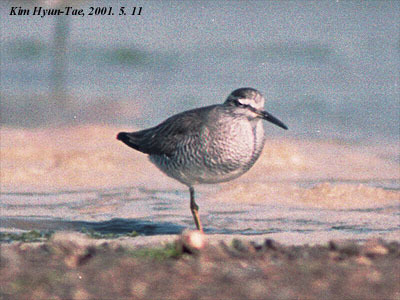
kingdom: Animalia
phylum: Chordata
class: Aves
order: Charadriiformes
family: Scolopacidae
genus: Tringa
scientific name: Tringa brevipes
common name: Grey-tailed tattler
